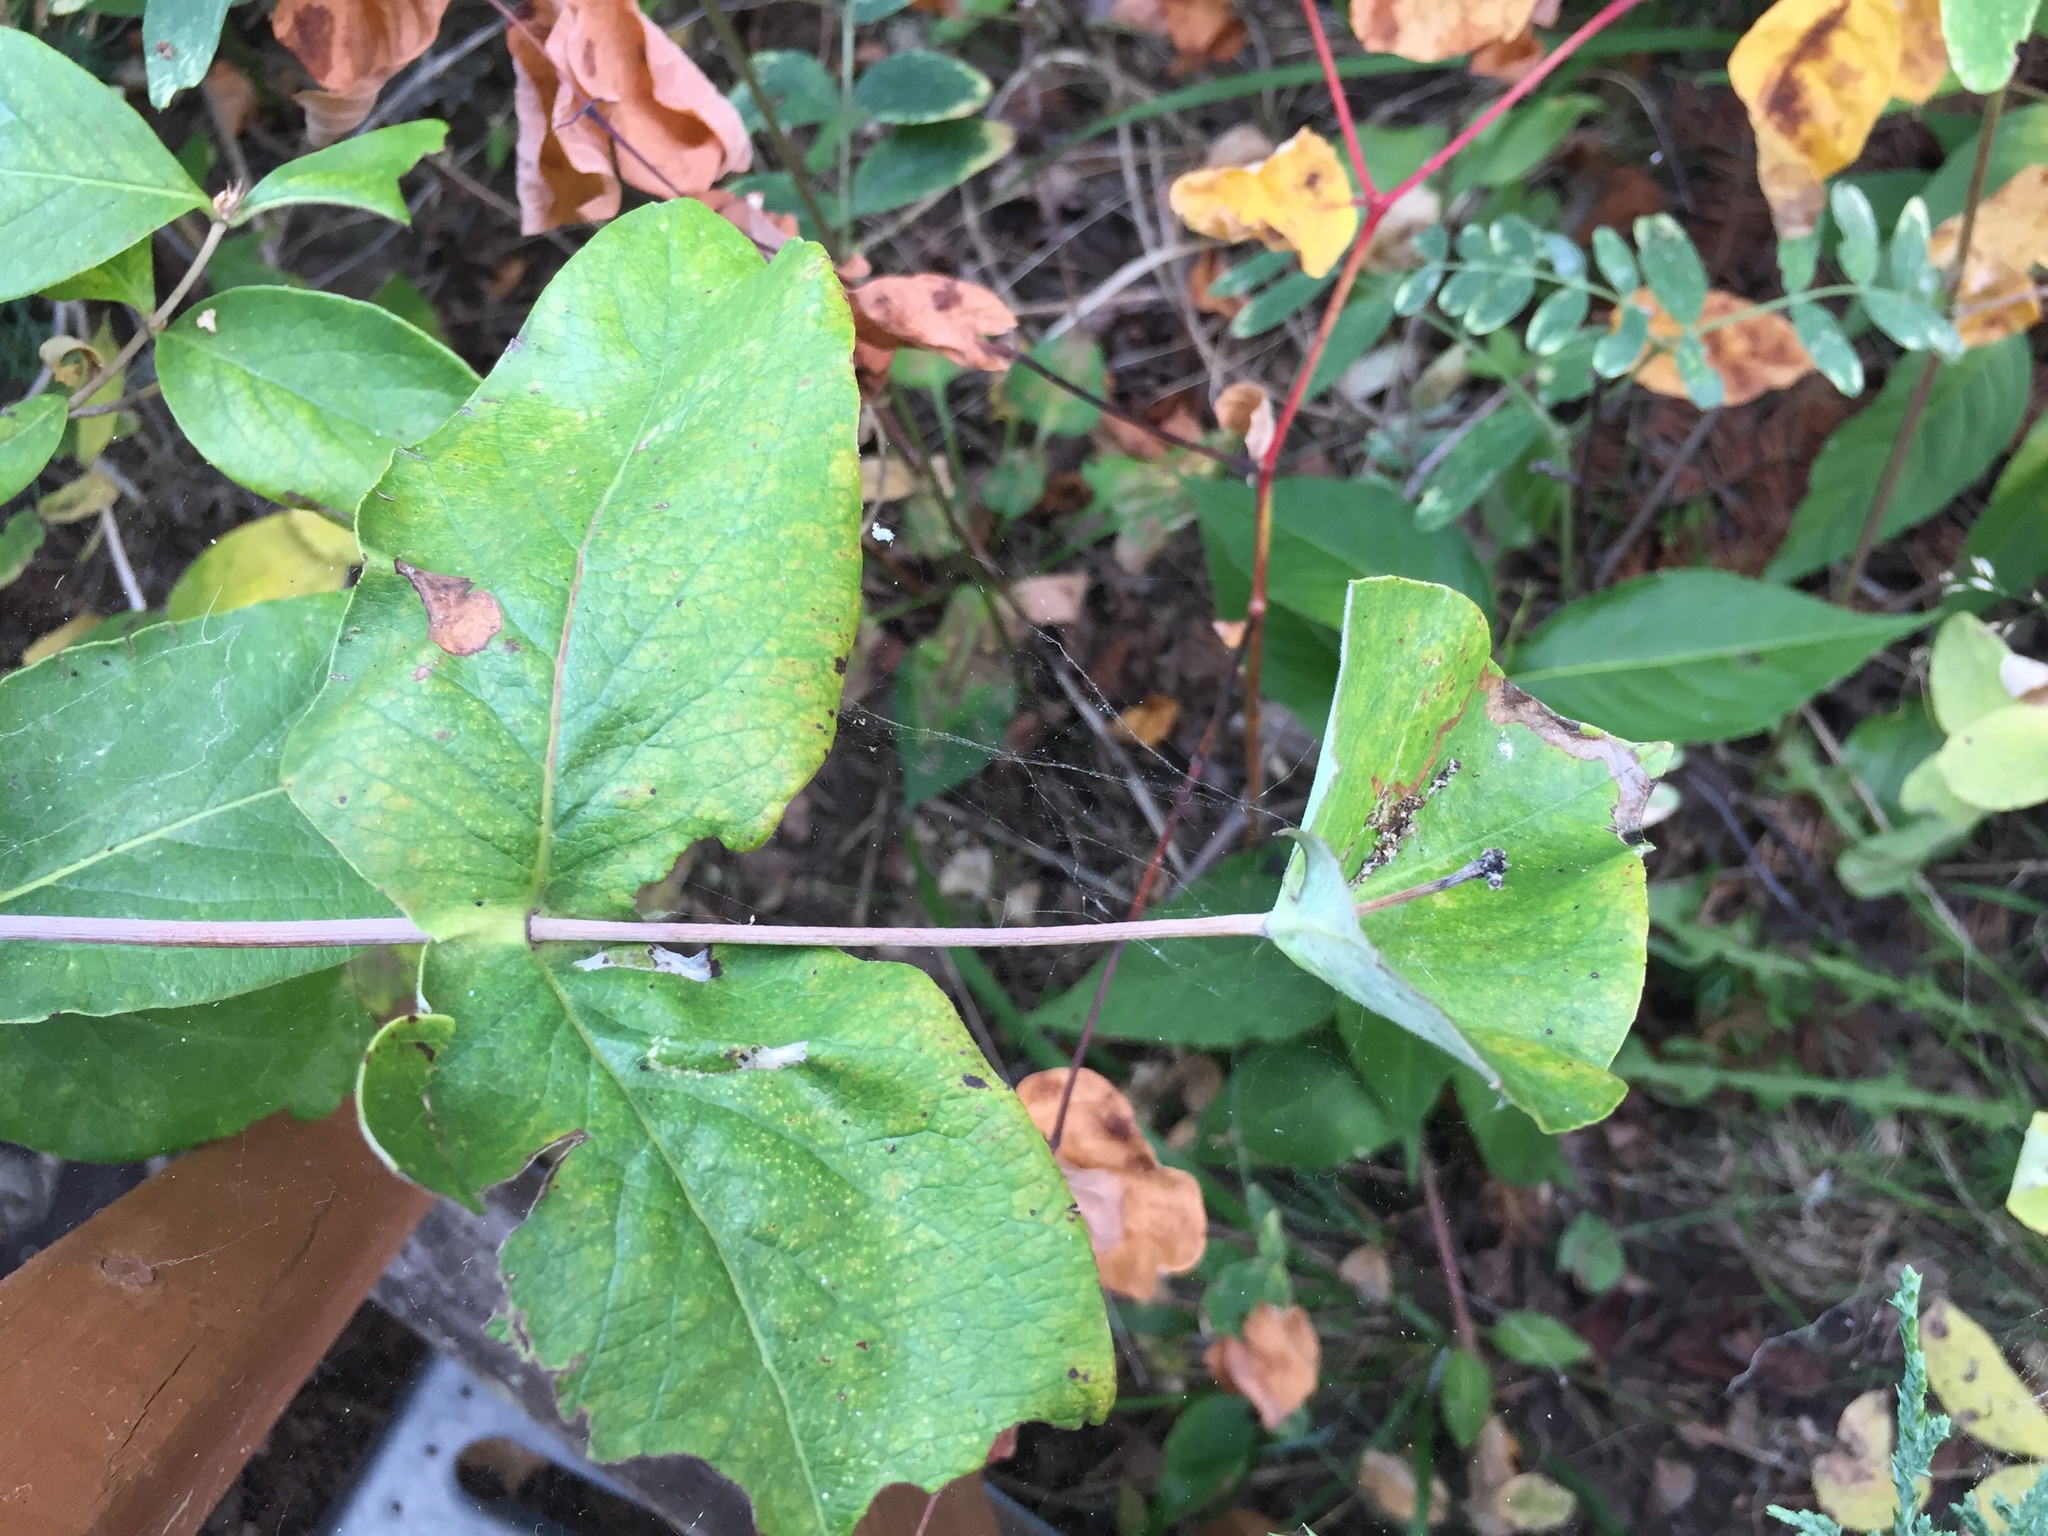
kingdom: Plantae
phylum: Tracheophyta
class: Magnoliopsida
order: Dipsacales
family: Caprifoliaceae
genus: Lonicera
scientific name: Lonicera dioica
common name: Limber honeysuckle
